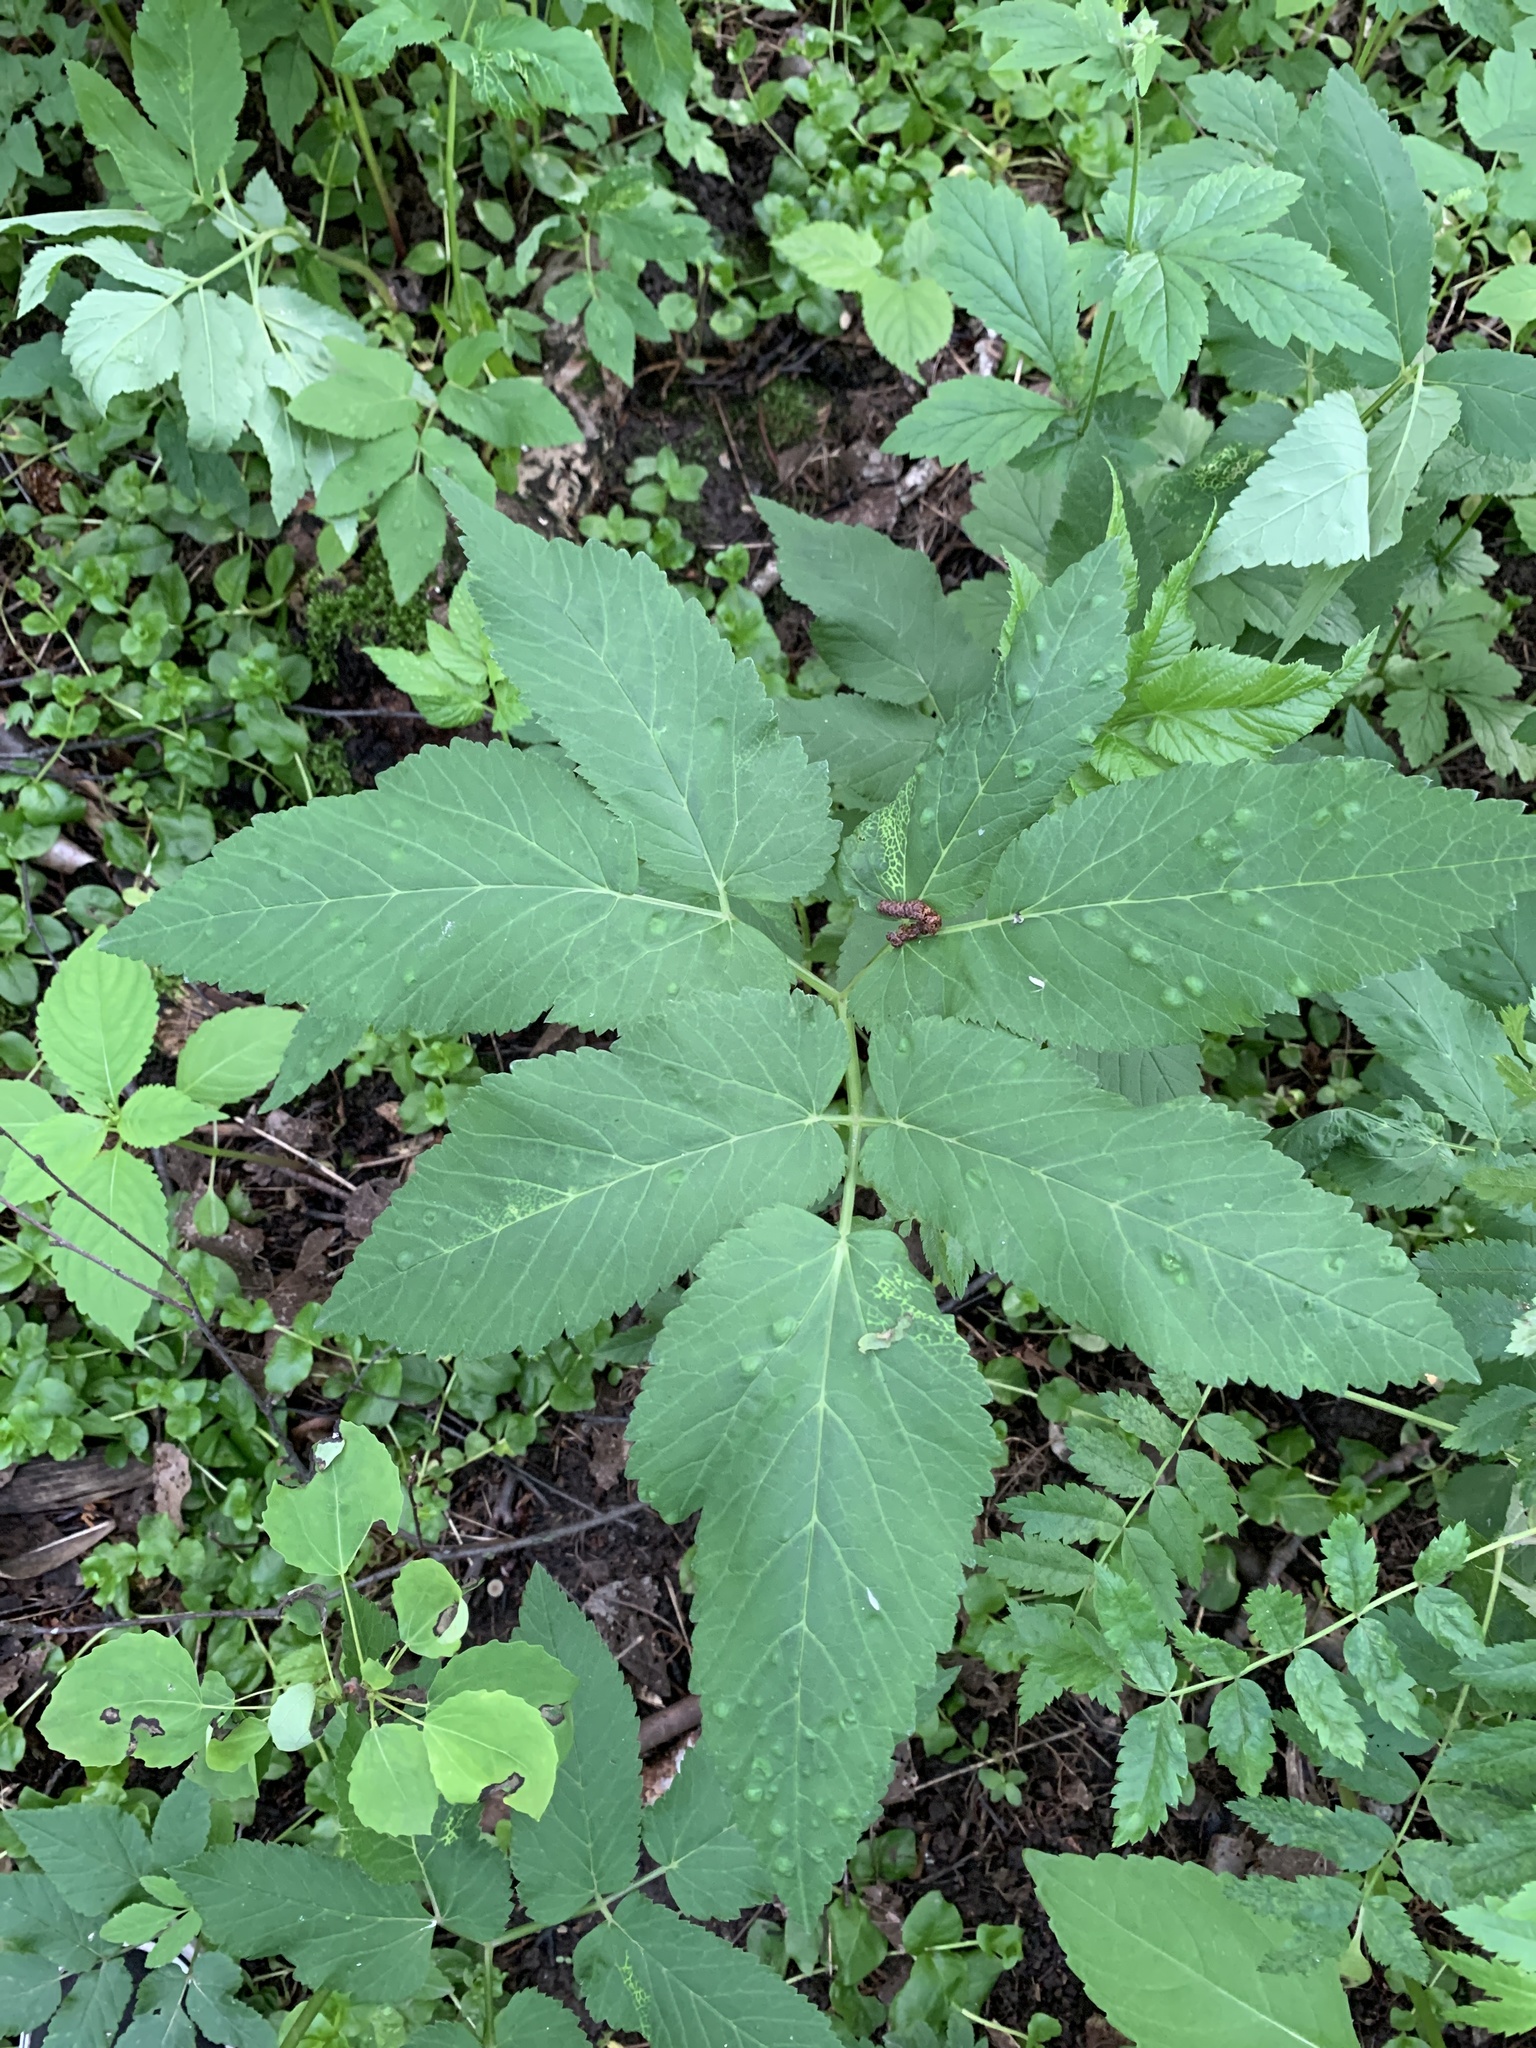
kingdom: Plantae
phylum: Tracheophyta
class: Magnoliopsida
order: Apiales
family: Apiaceae
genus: Aegopodium
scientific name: Aegopodium podagraria
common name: Ground-elder
